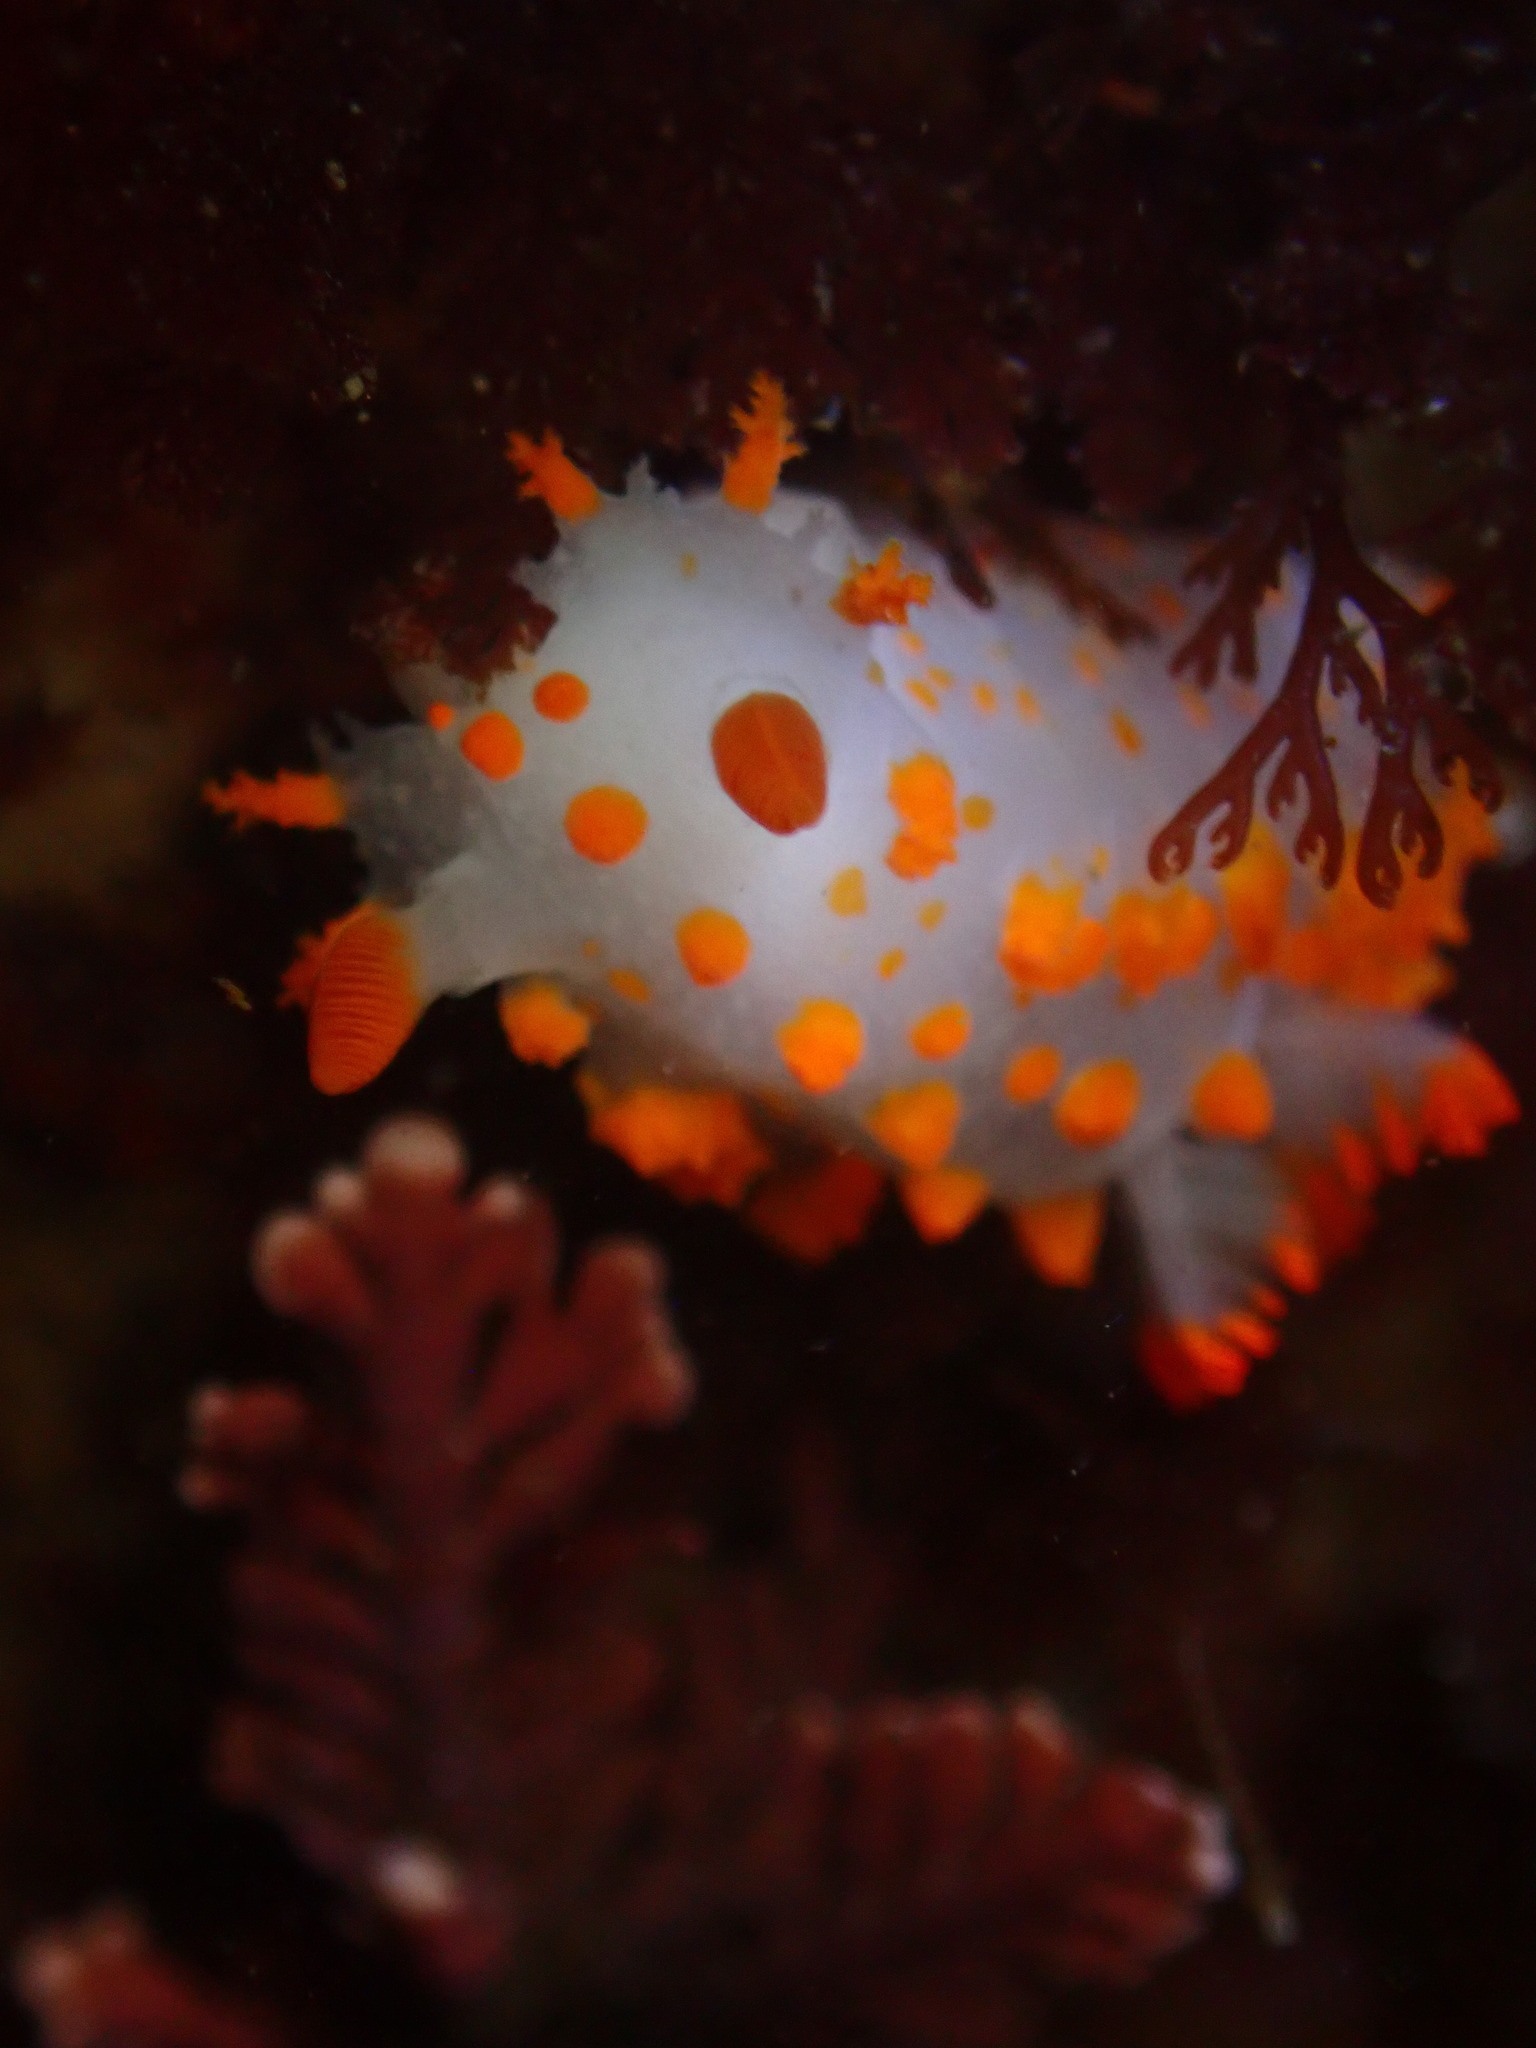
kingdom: Animalia
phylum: Mollusca
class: Gastropoda
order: Nudibranchia
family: Polyceridae
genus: Triopha
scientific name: Triopha catalinae
